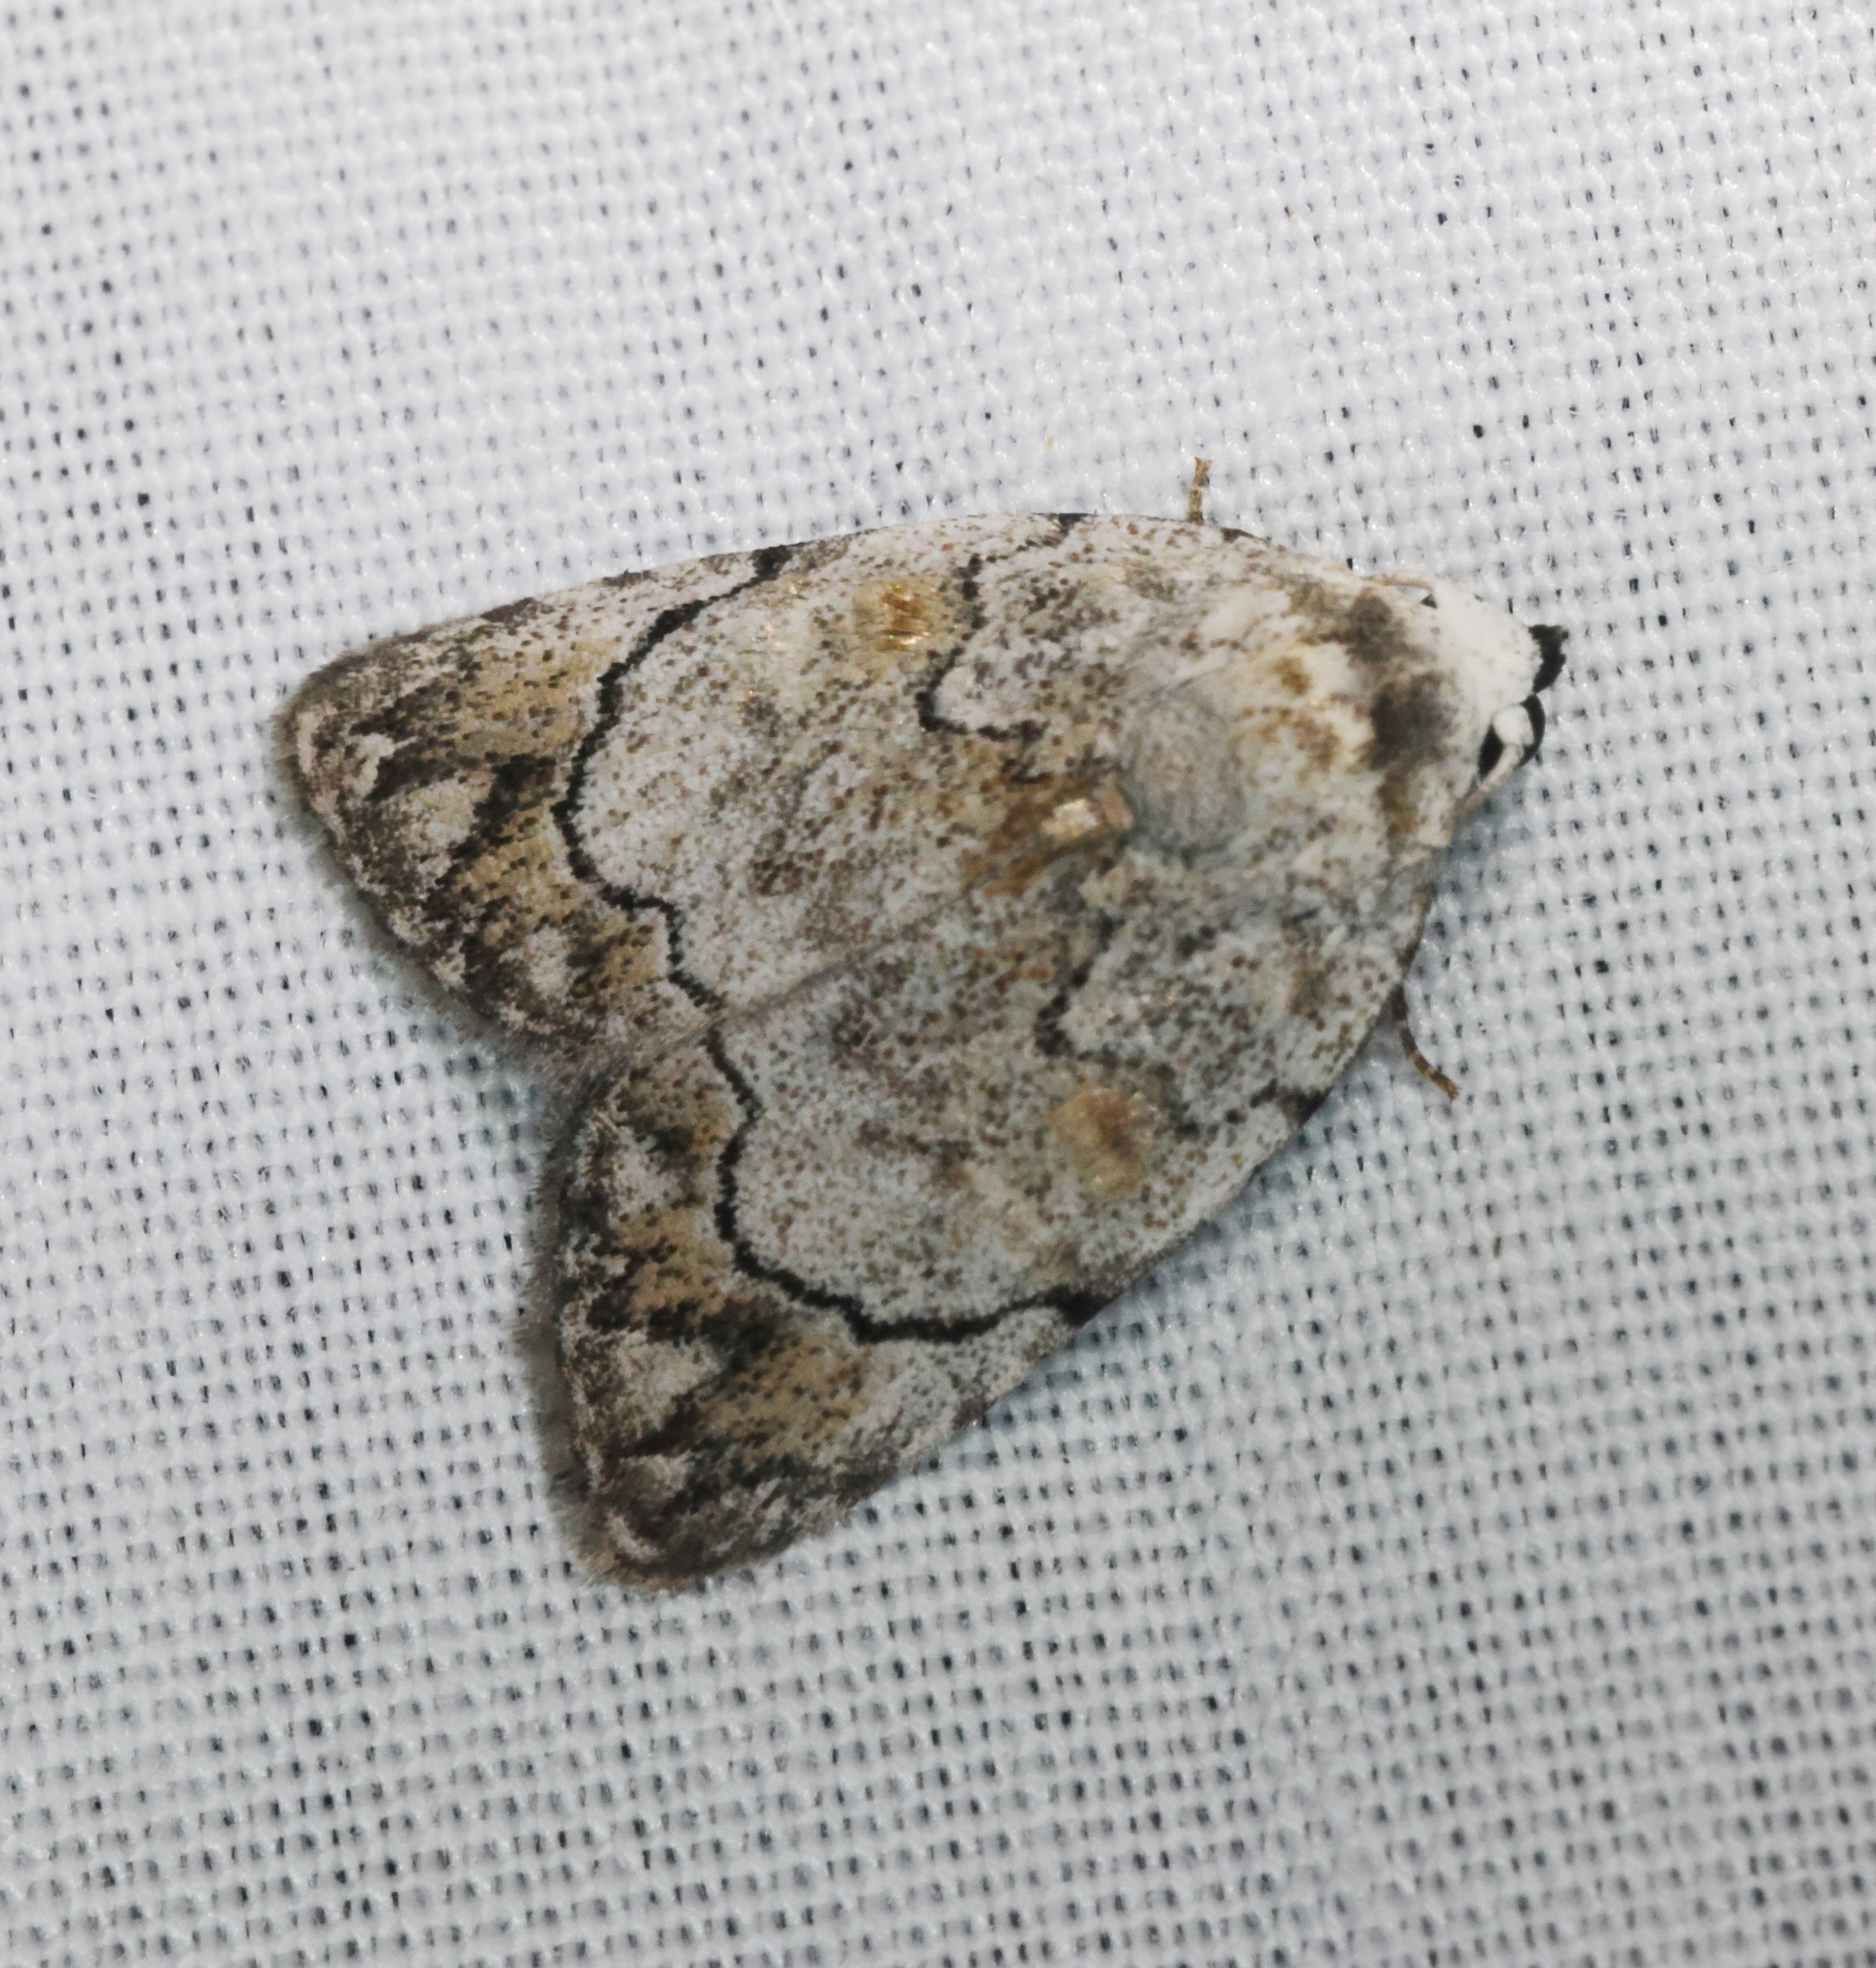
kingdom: Animalia
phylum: Arthropoda
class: Insecta
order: Lepidoptera
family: Nolidae
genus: Melanographia
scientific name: Melanographia flexilineata
